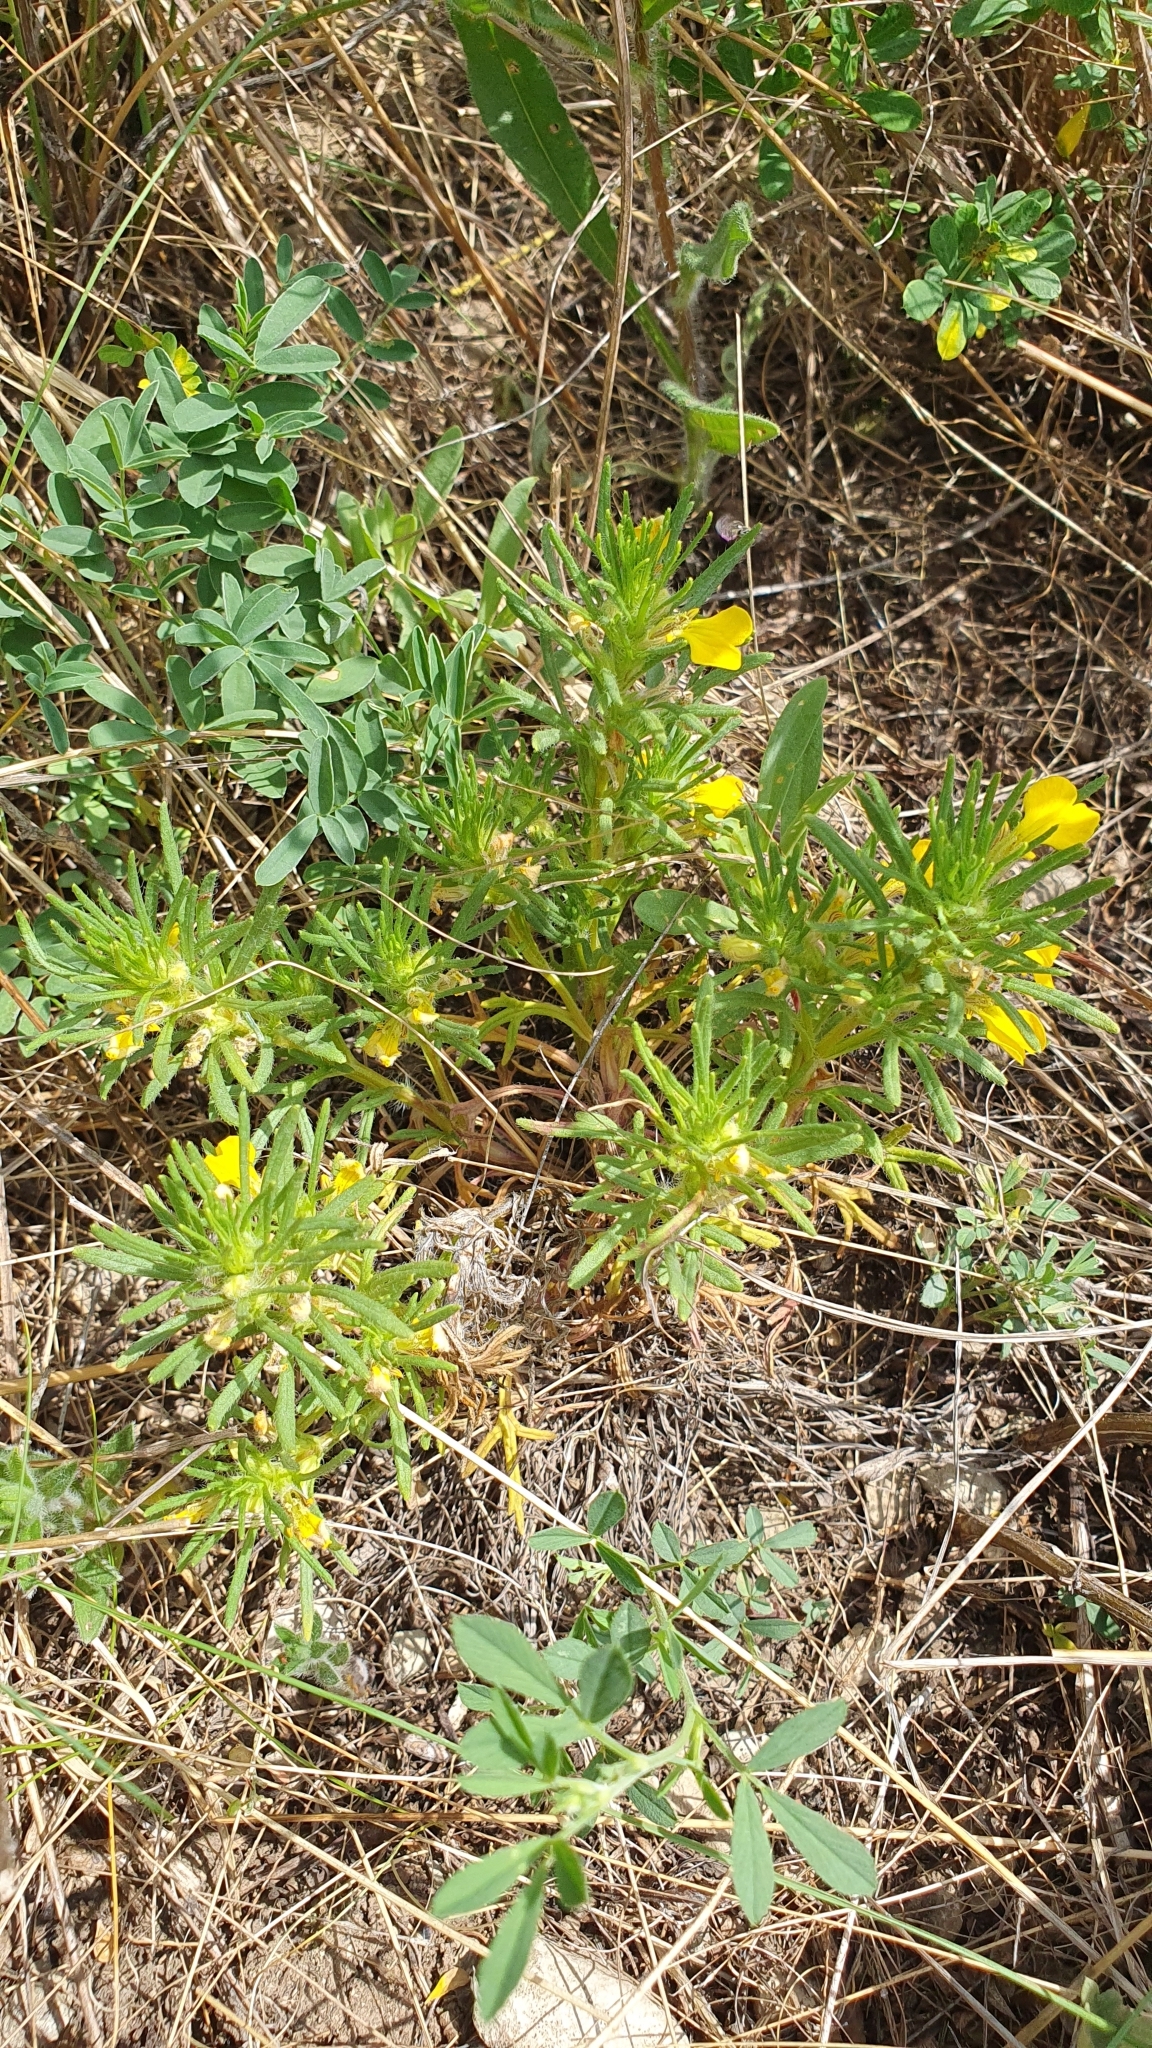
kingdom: Plantae
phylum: Tracheophyta
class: Magnoliopsida
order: Lamiales
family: Lamiaceae
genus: Ajuga
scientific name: Ajuga chamaepitys
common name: Ground-pine
